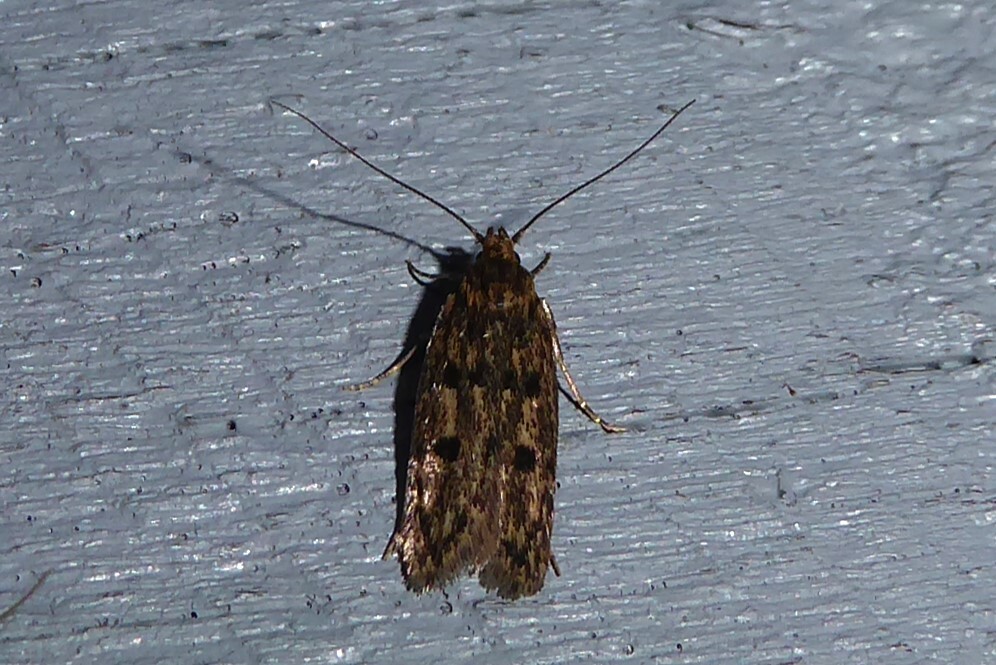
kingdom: Animalia
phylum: Arthropoda
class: Insecta
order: Lepidoptera
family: Oecophoridae
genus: Hofmannophila
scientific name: Hofmannophila pseudospretella
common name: Brown house moth
